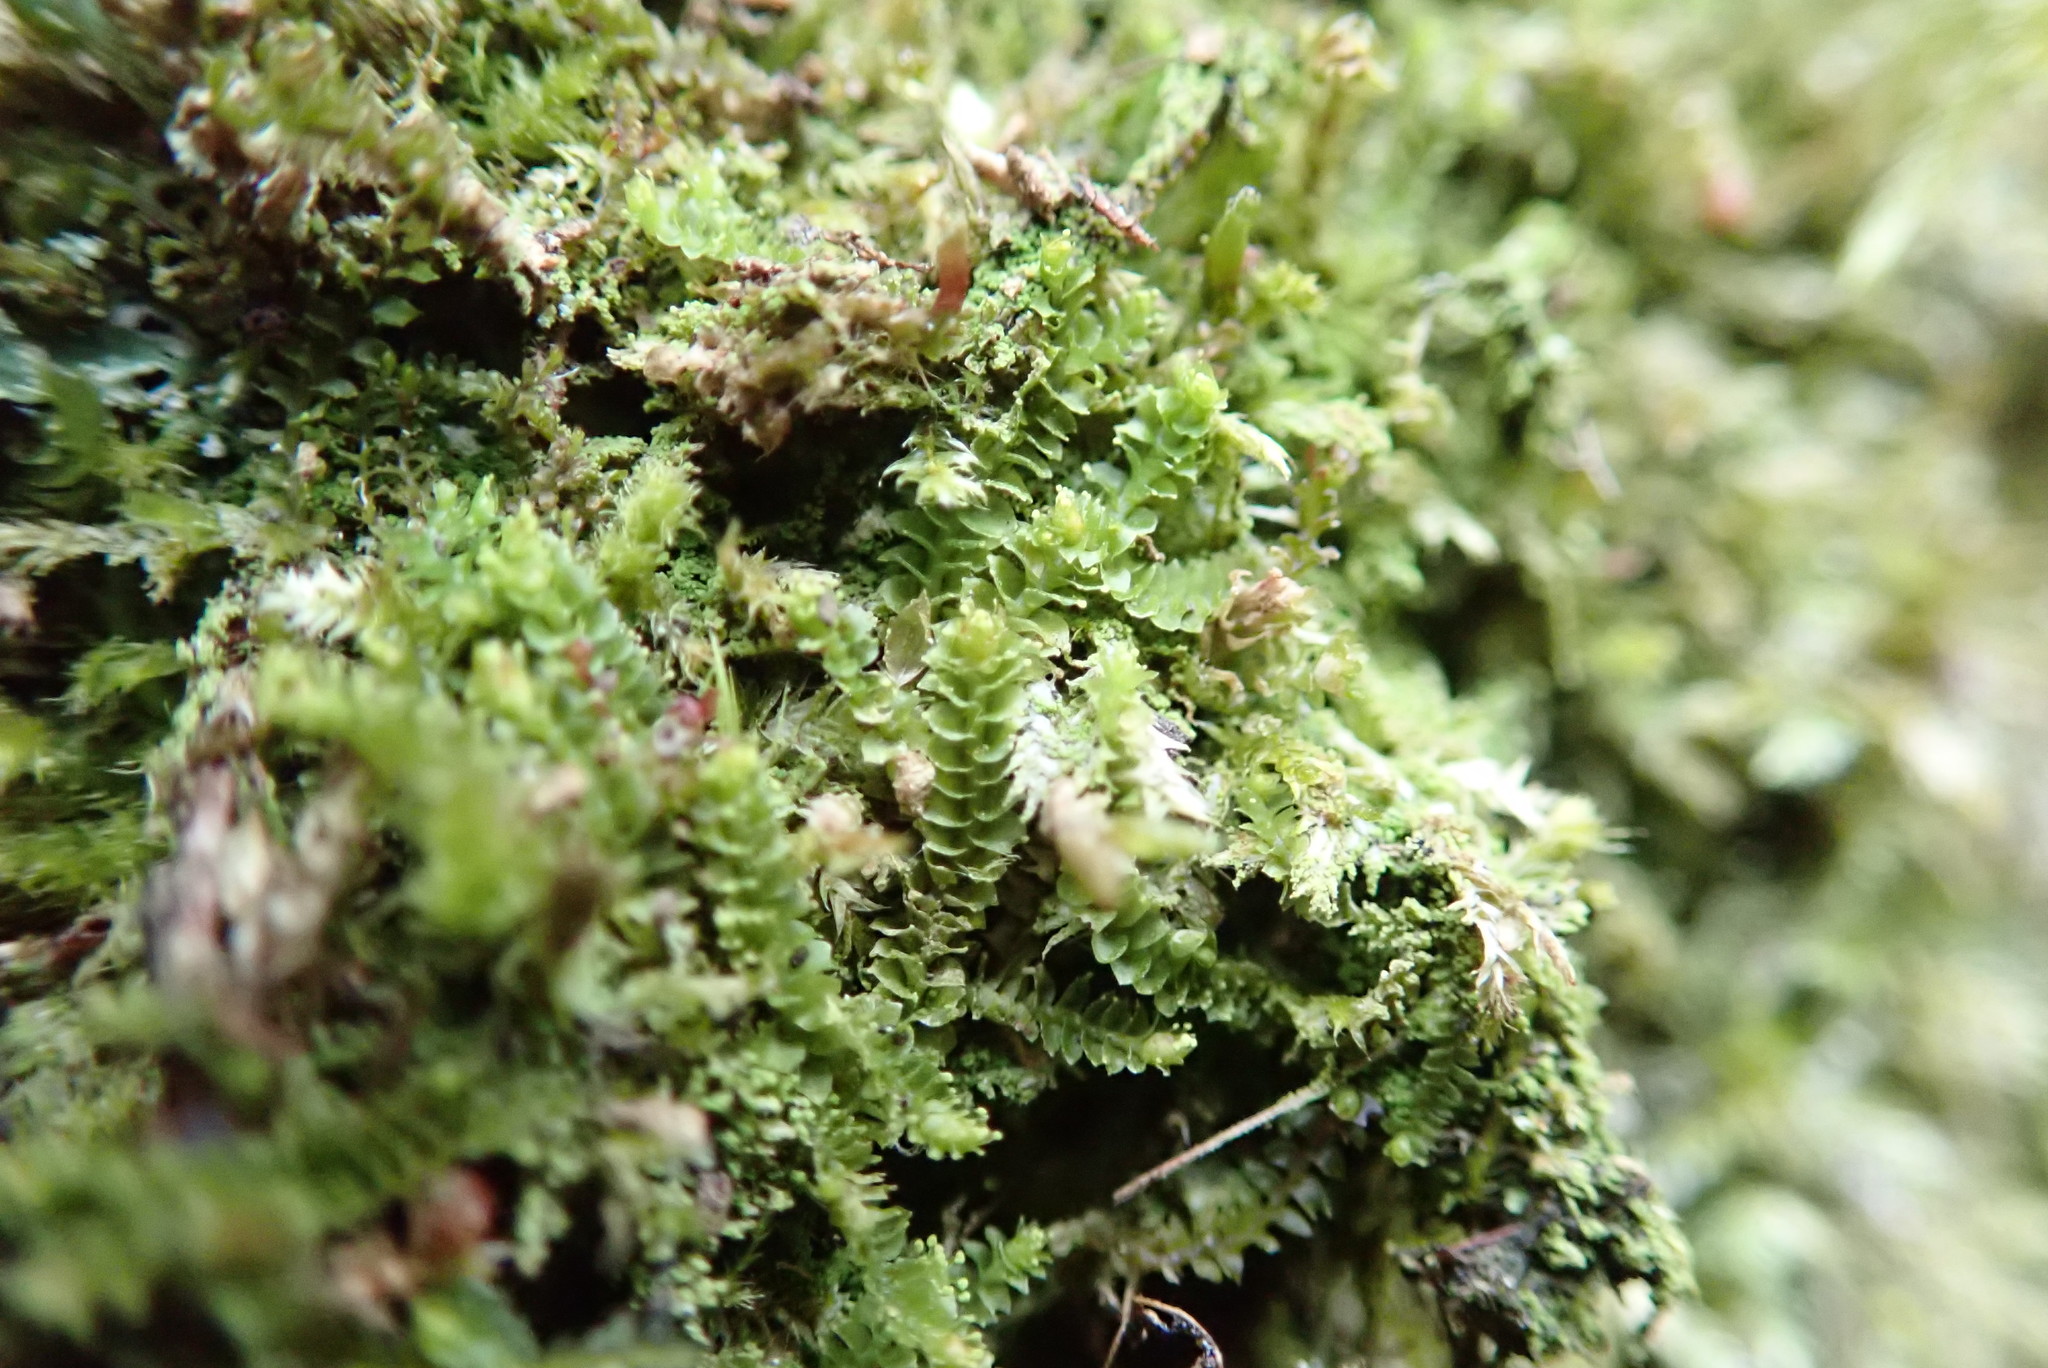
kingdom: Plantae
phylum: Marchantiophyta
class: Jungermanniopsida
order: Jungermanniales
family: Gymnomitriaceae
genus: Marsupella
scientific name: Marsupella emarginata
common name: Notched rustwort
